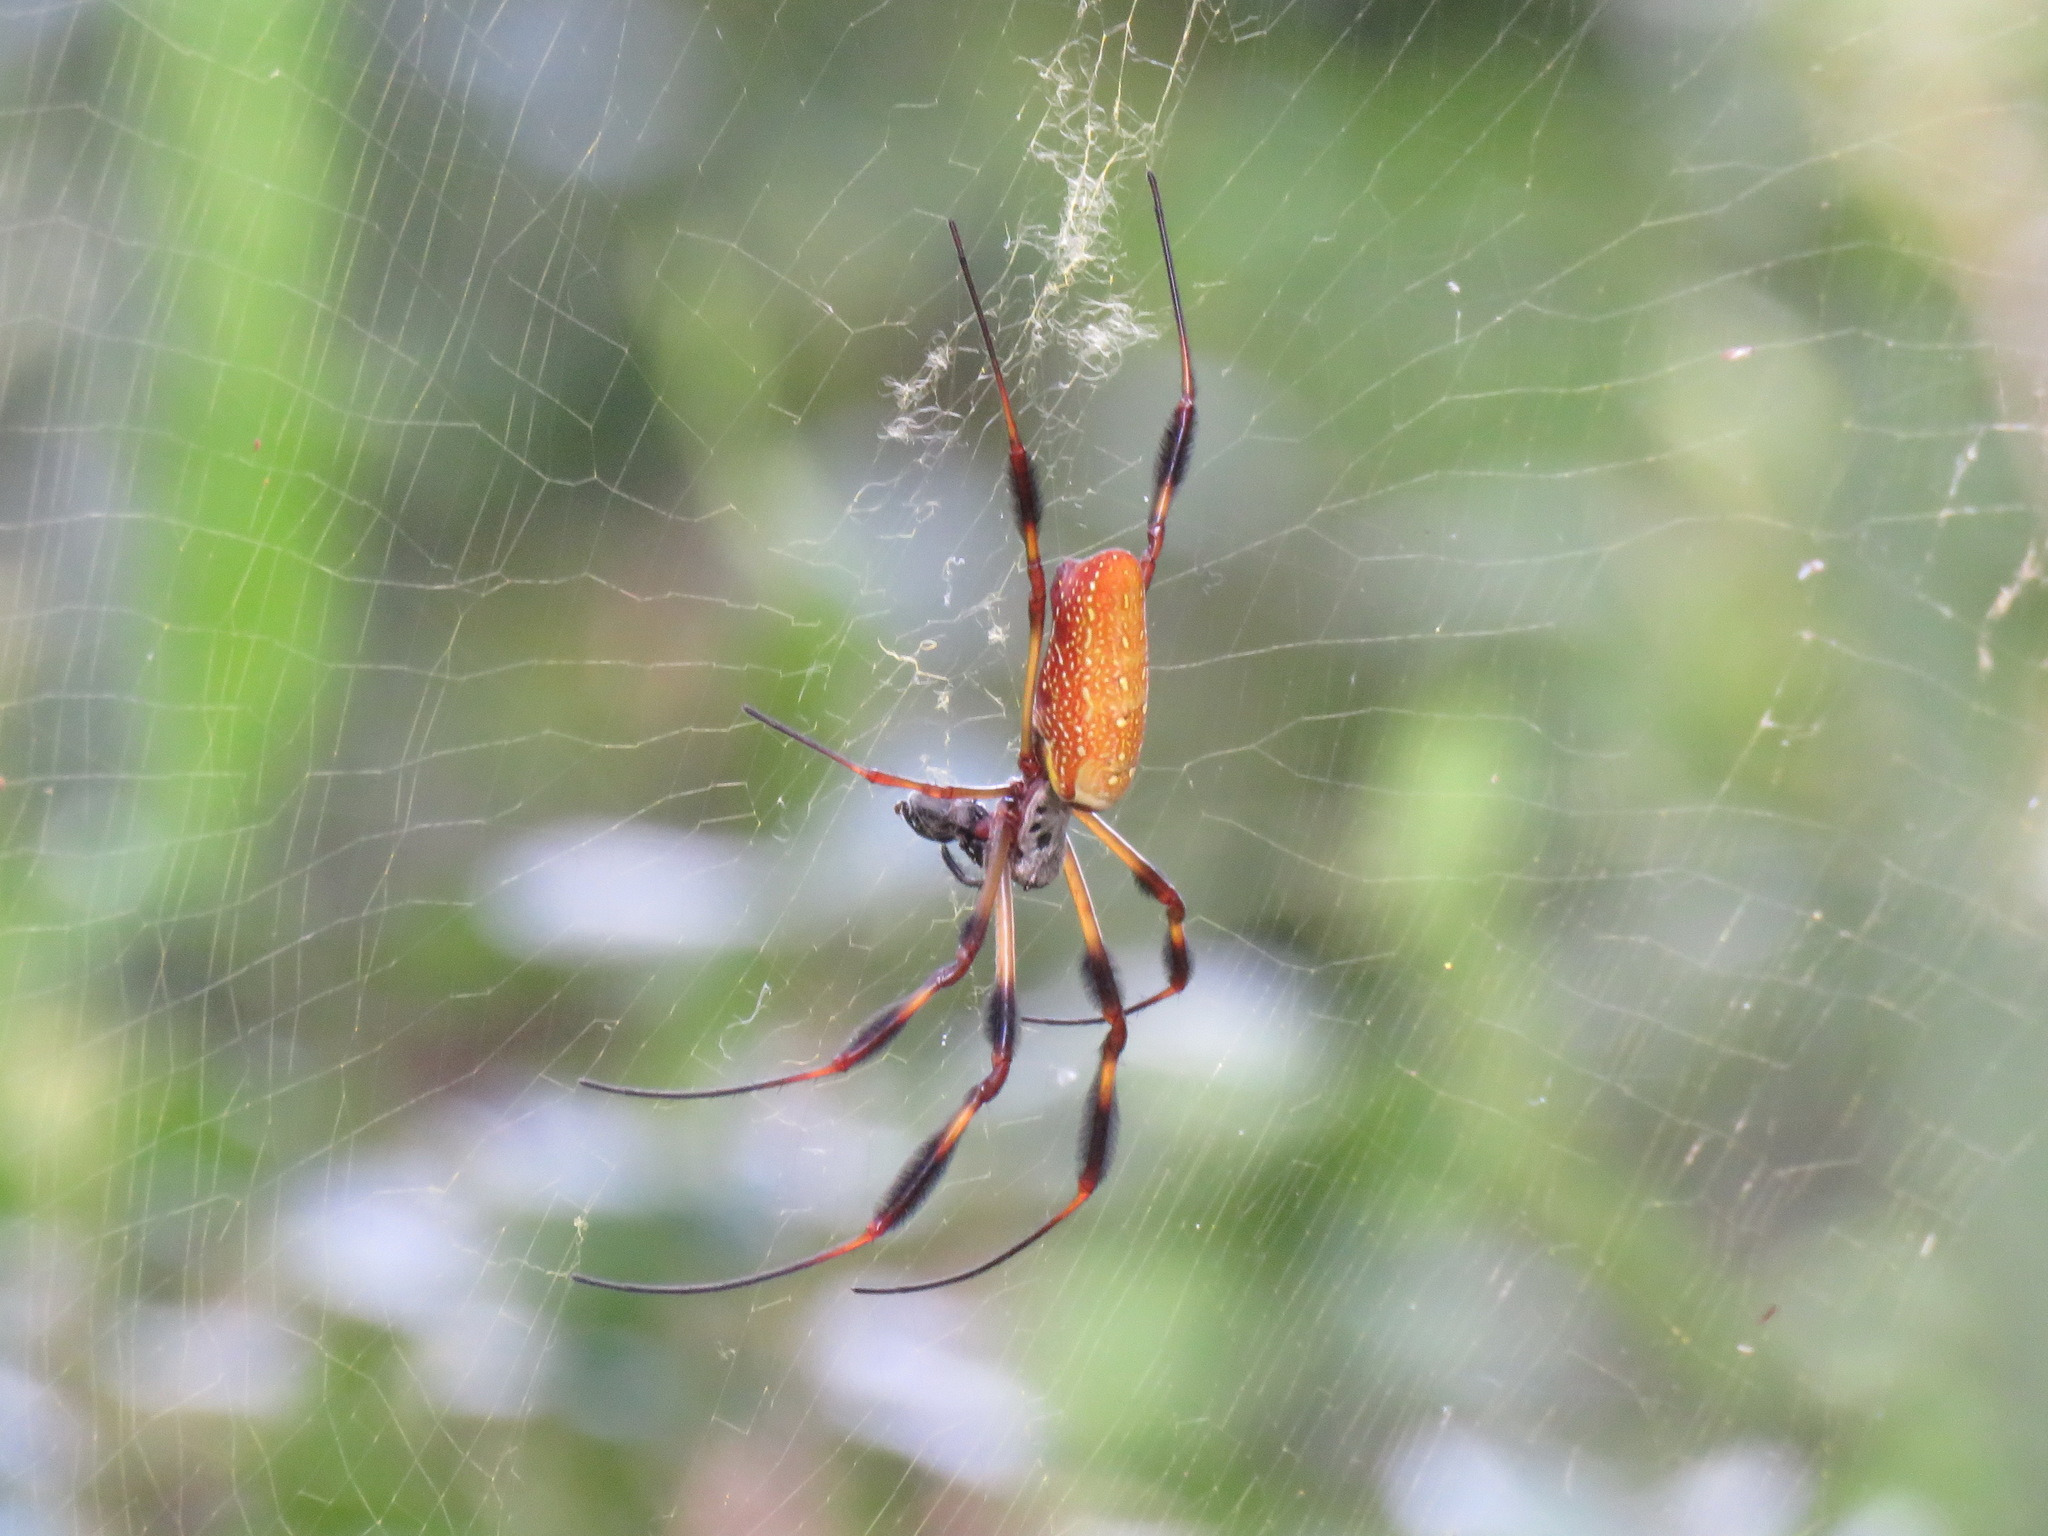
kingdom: Animalia
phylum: Arthropoda
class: Arachnida
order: Araneae
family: Araneidae
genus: Trichonephila
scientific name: Trichonephila clavipes
